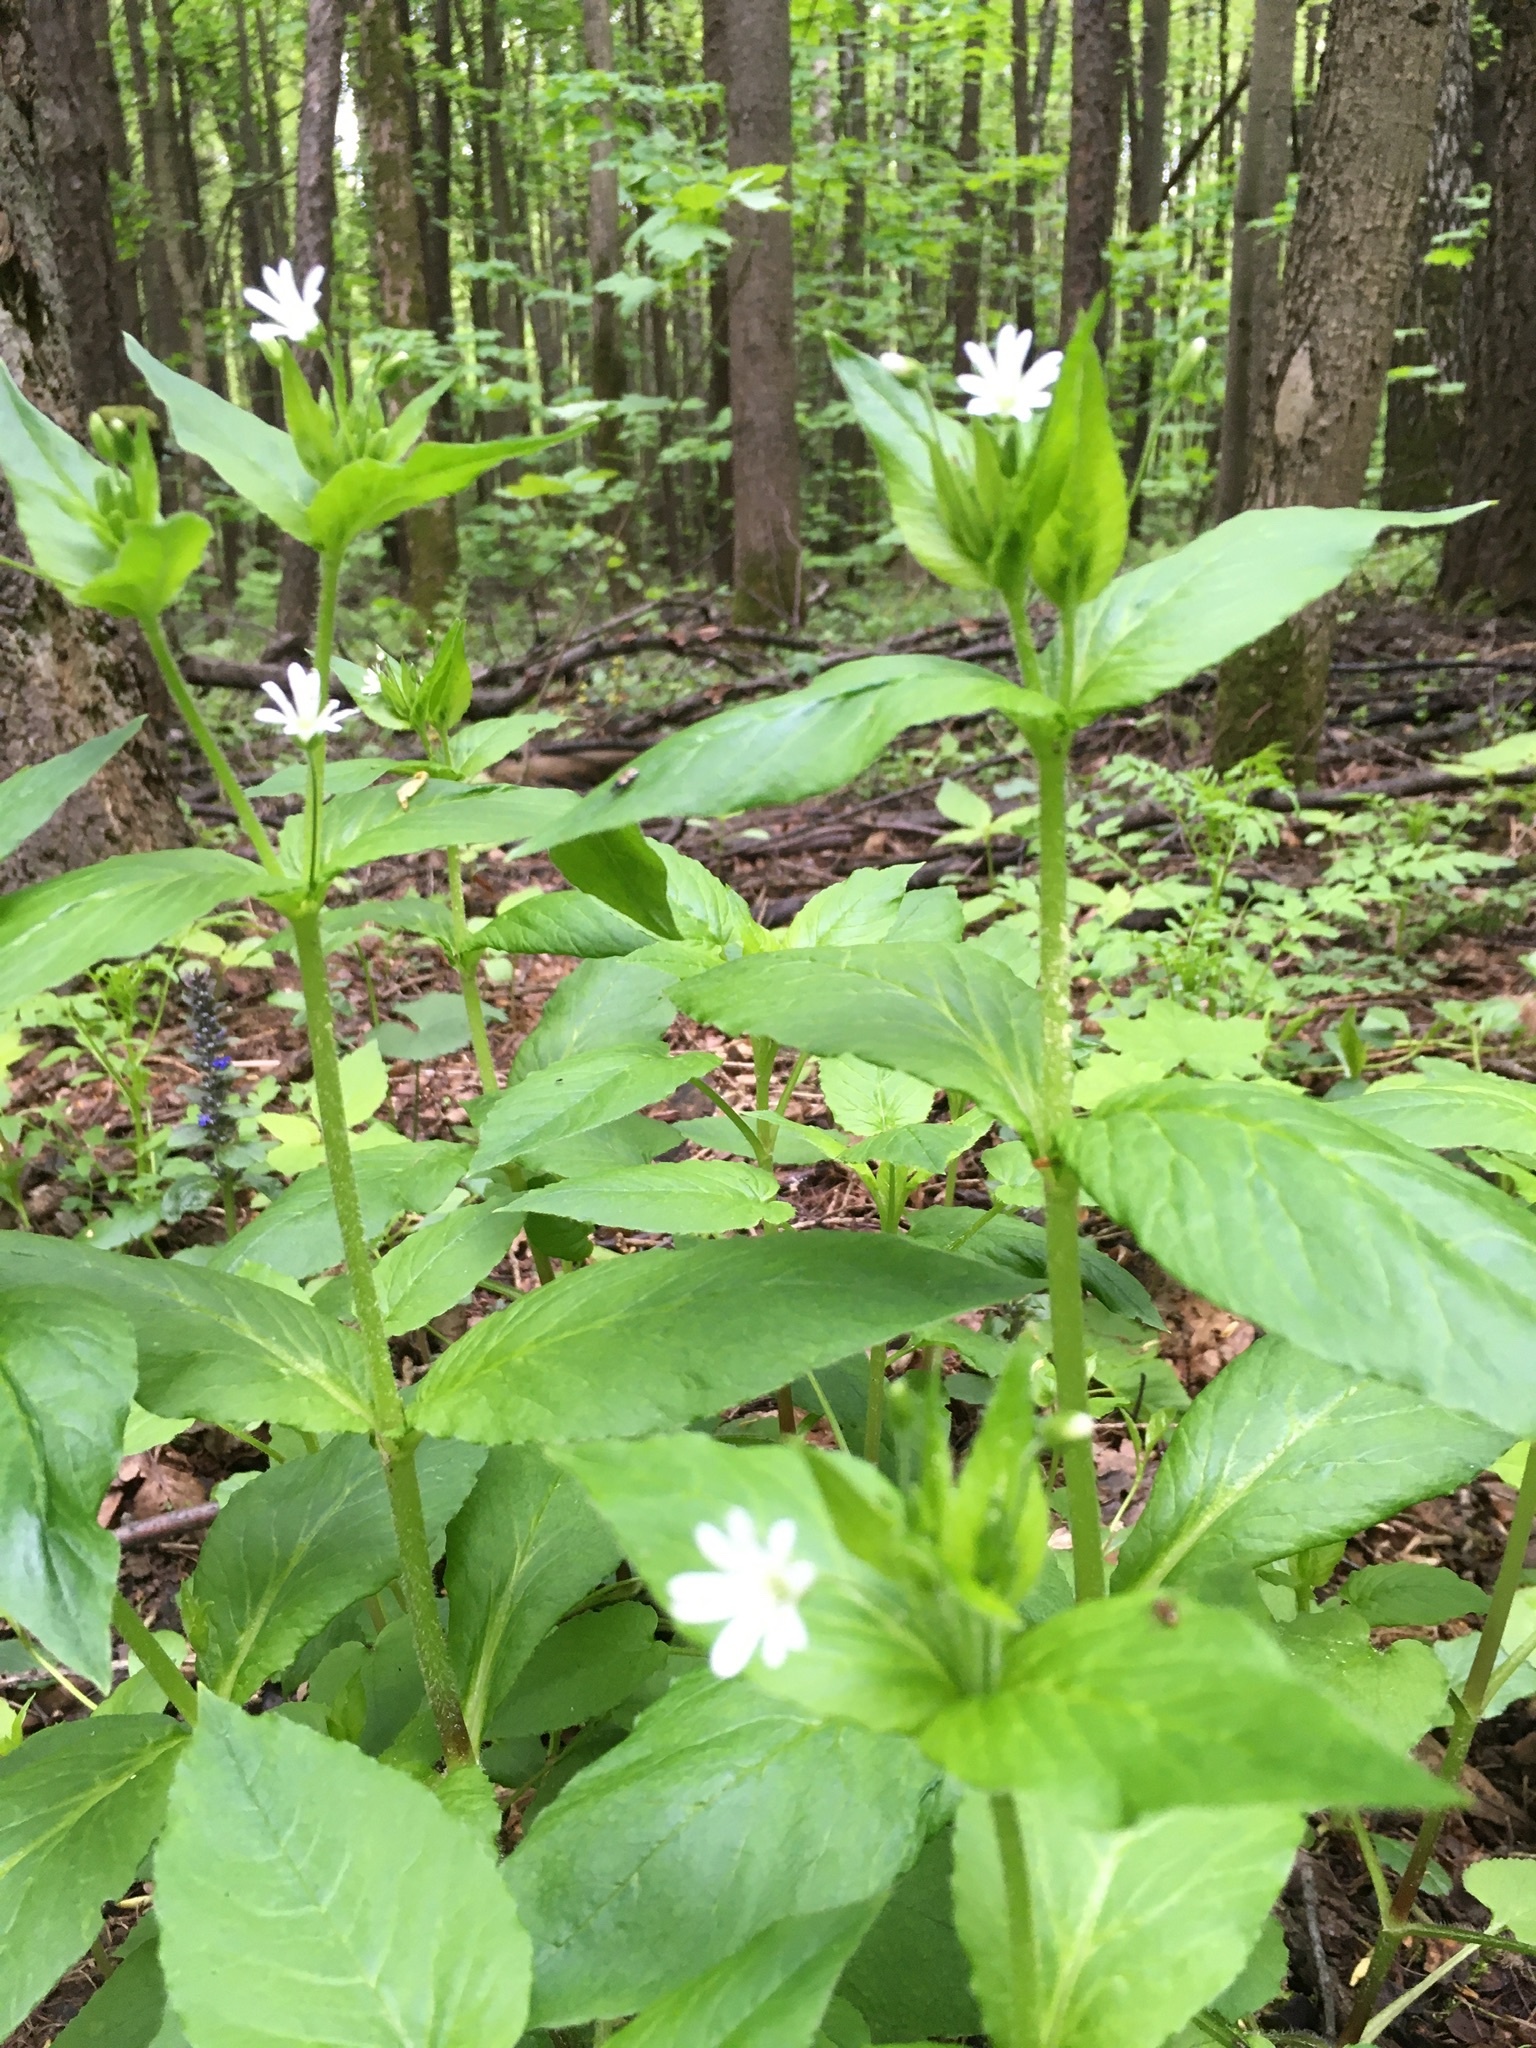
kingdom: Plantae
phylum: Tracheophyta
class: Magnoliopsida
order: Caryophyllales
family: Caryophyllaceae
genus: Stellaria
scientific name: Stellaria nemorum
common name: Wood stitchwort
